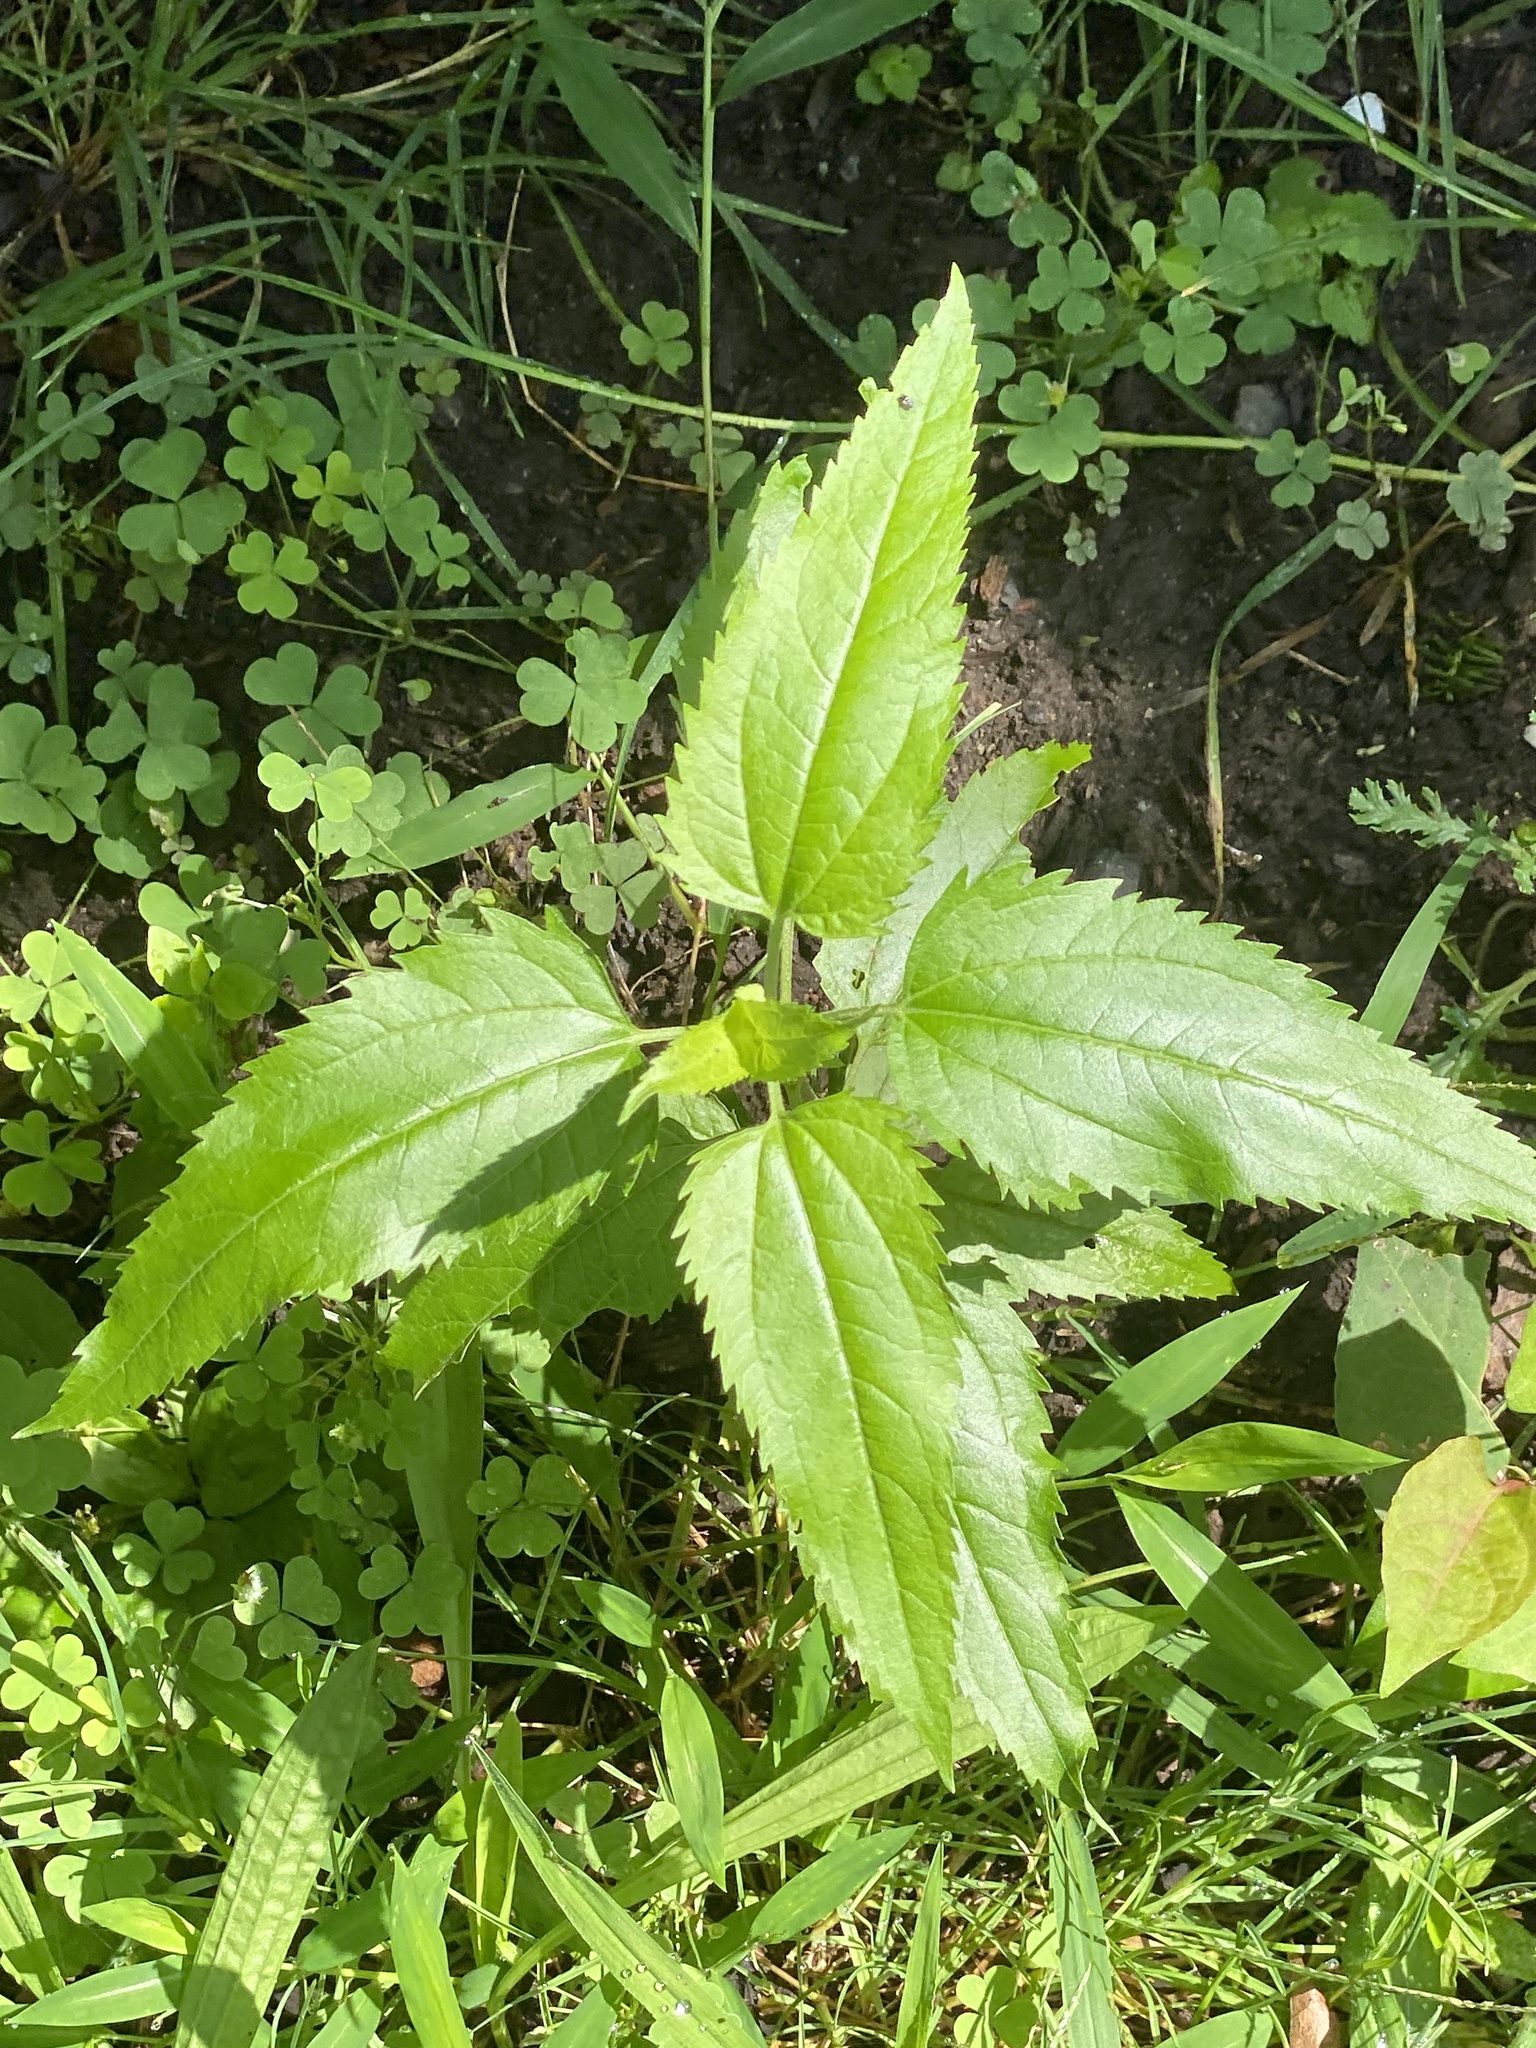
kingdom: Plantae
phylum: Tracheophyta
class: Magnoliopsida
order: Asterales
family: Asteraceae
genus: Eupatorium
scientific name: Eupatorium serotinum
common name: Late boneset
